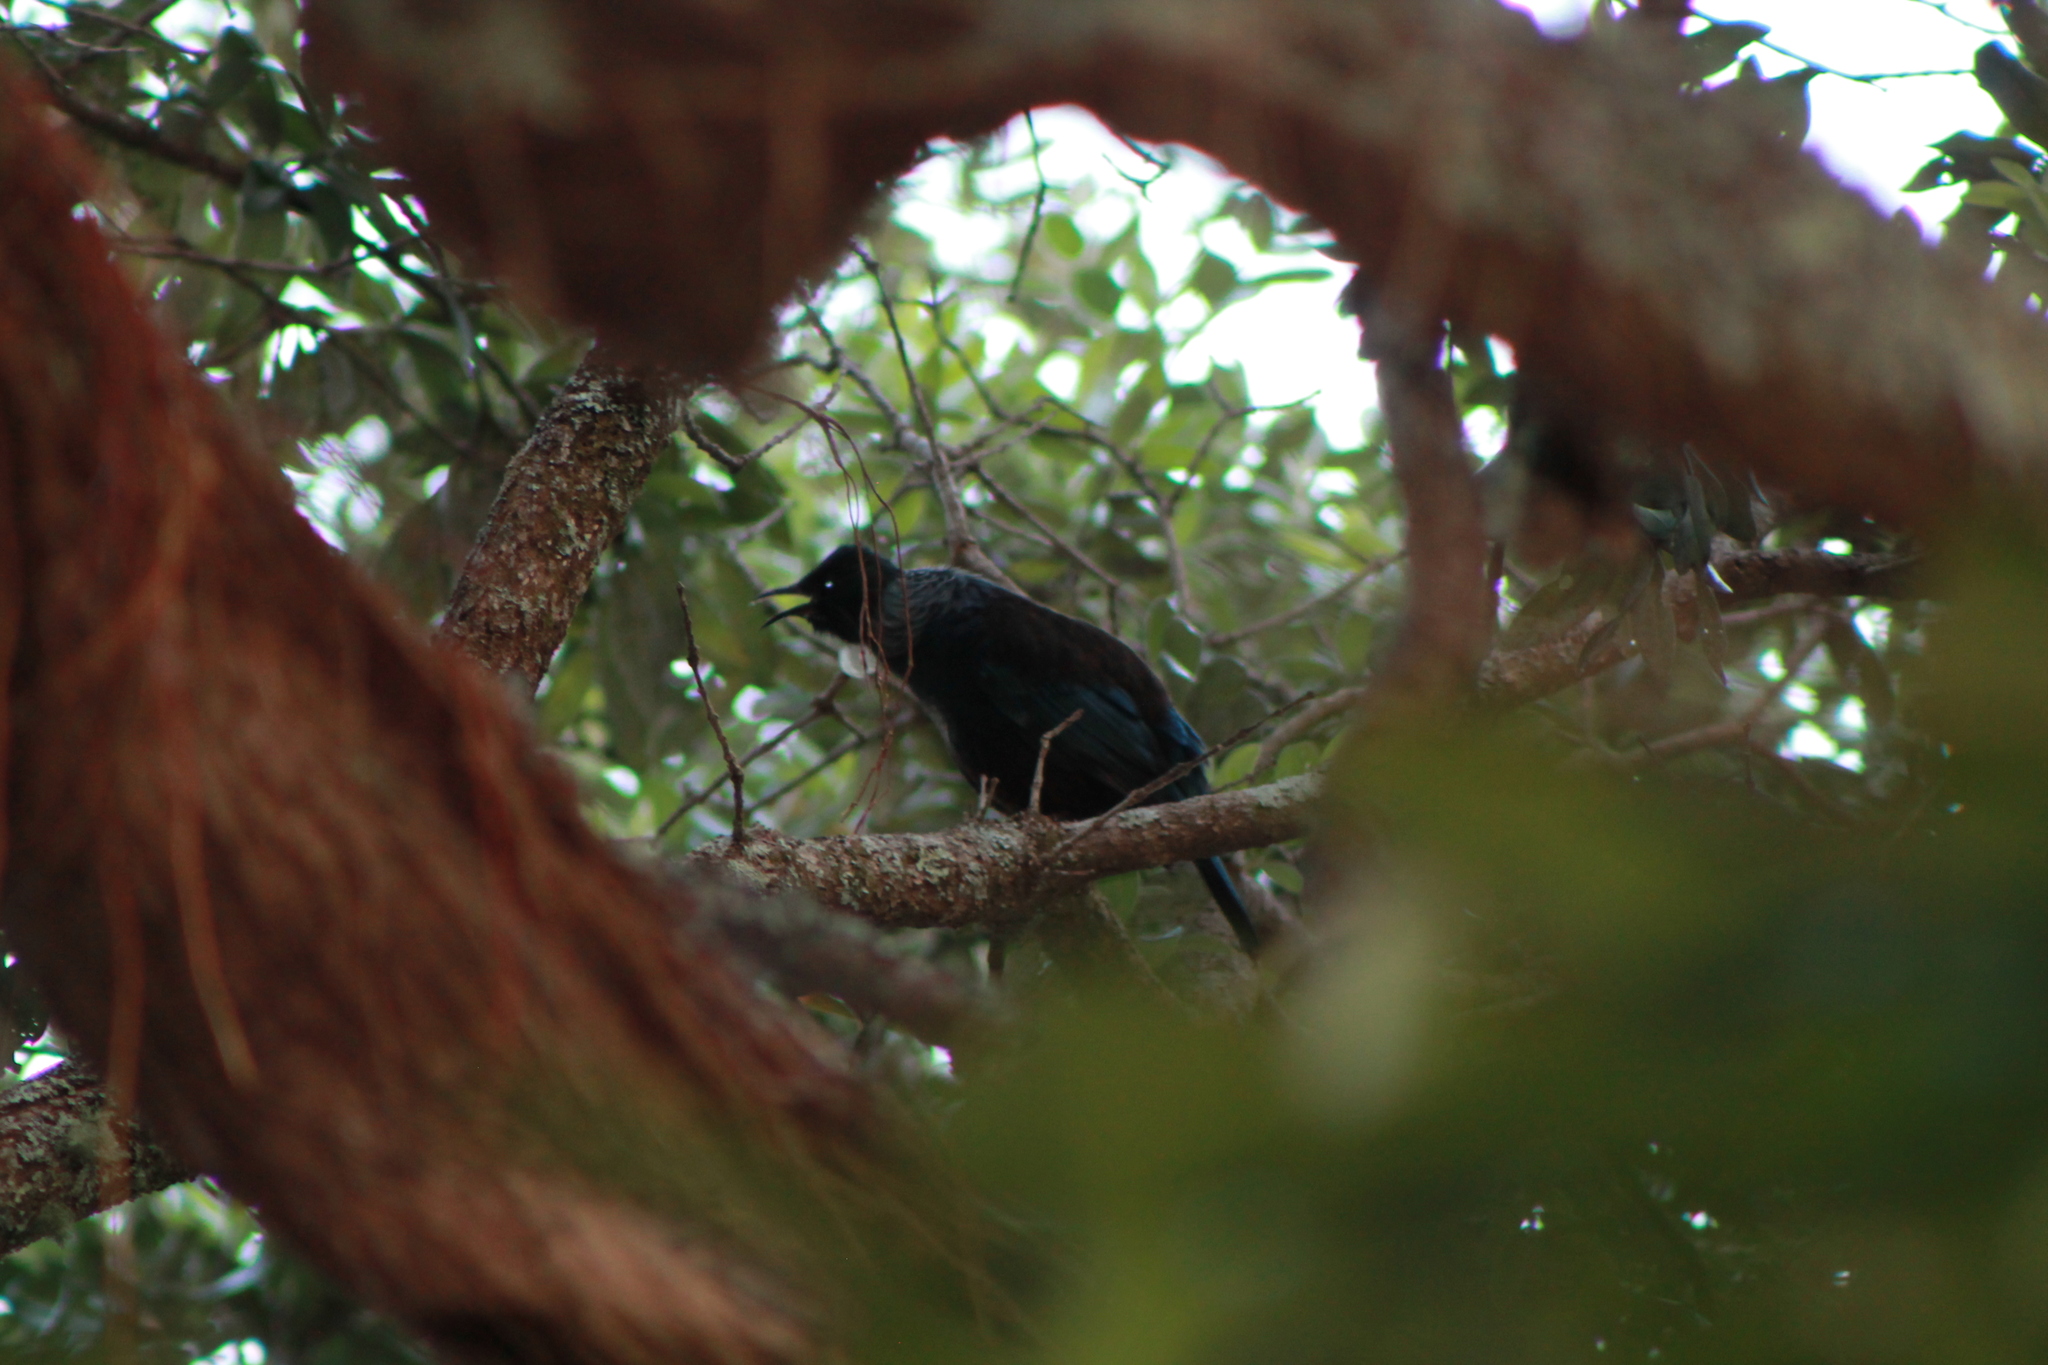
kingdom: Animalia
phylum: Chordata
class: Aves
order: Passeriformes
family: Meliphagidae
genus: Prosthemadera
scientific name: Prosthemadera novaeseelandiae
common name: Tui
